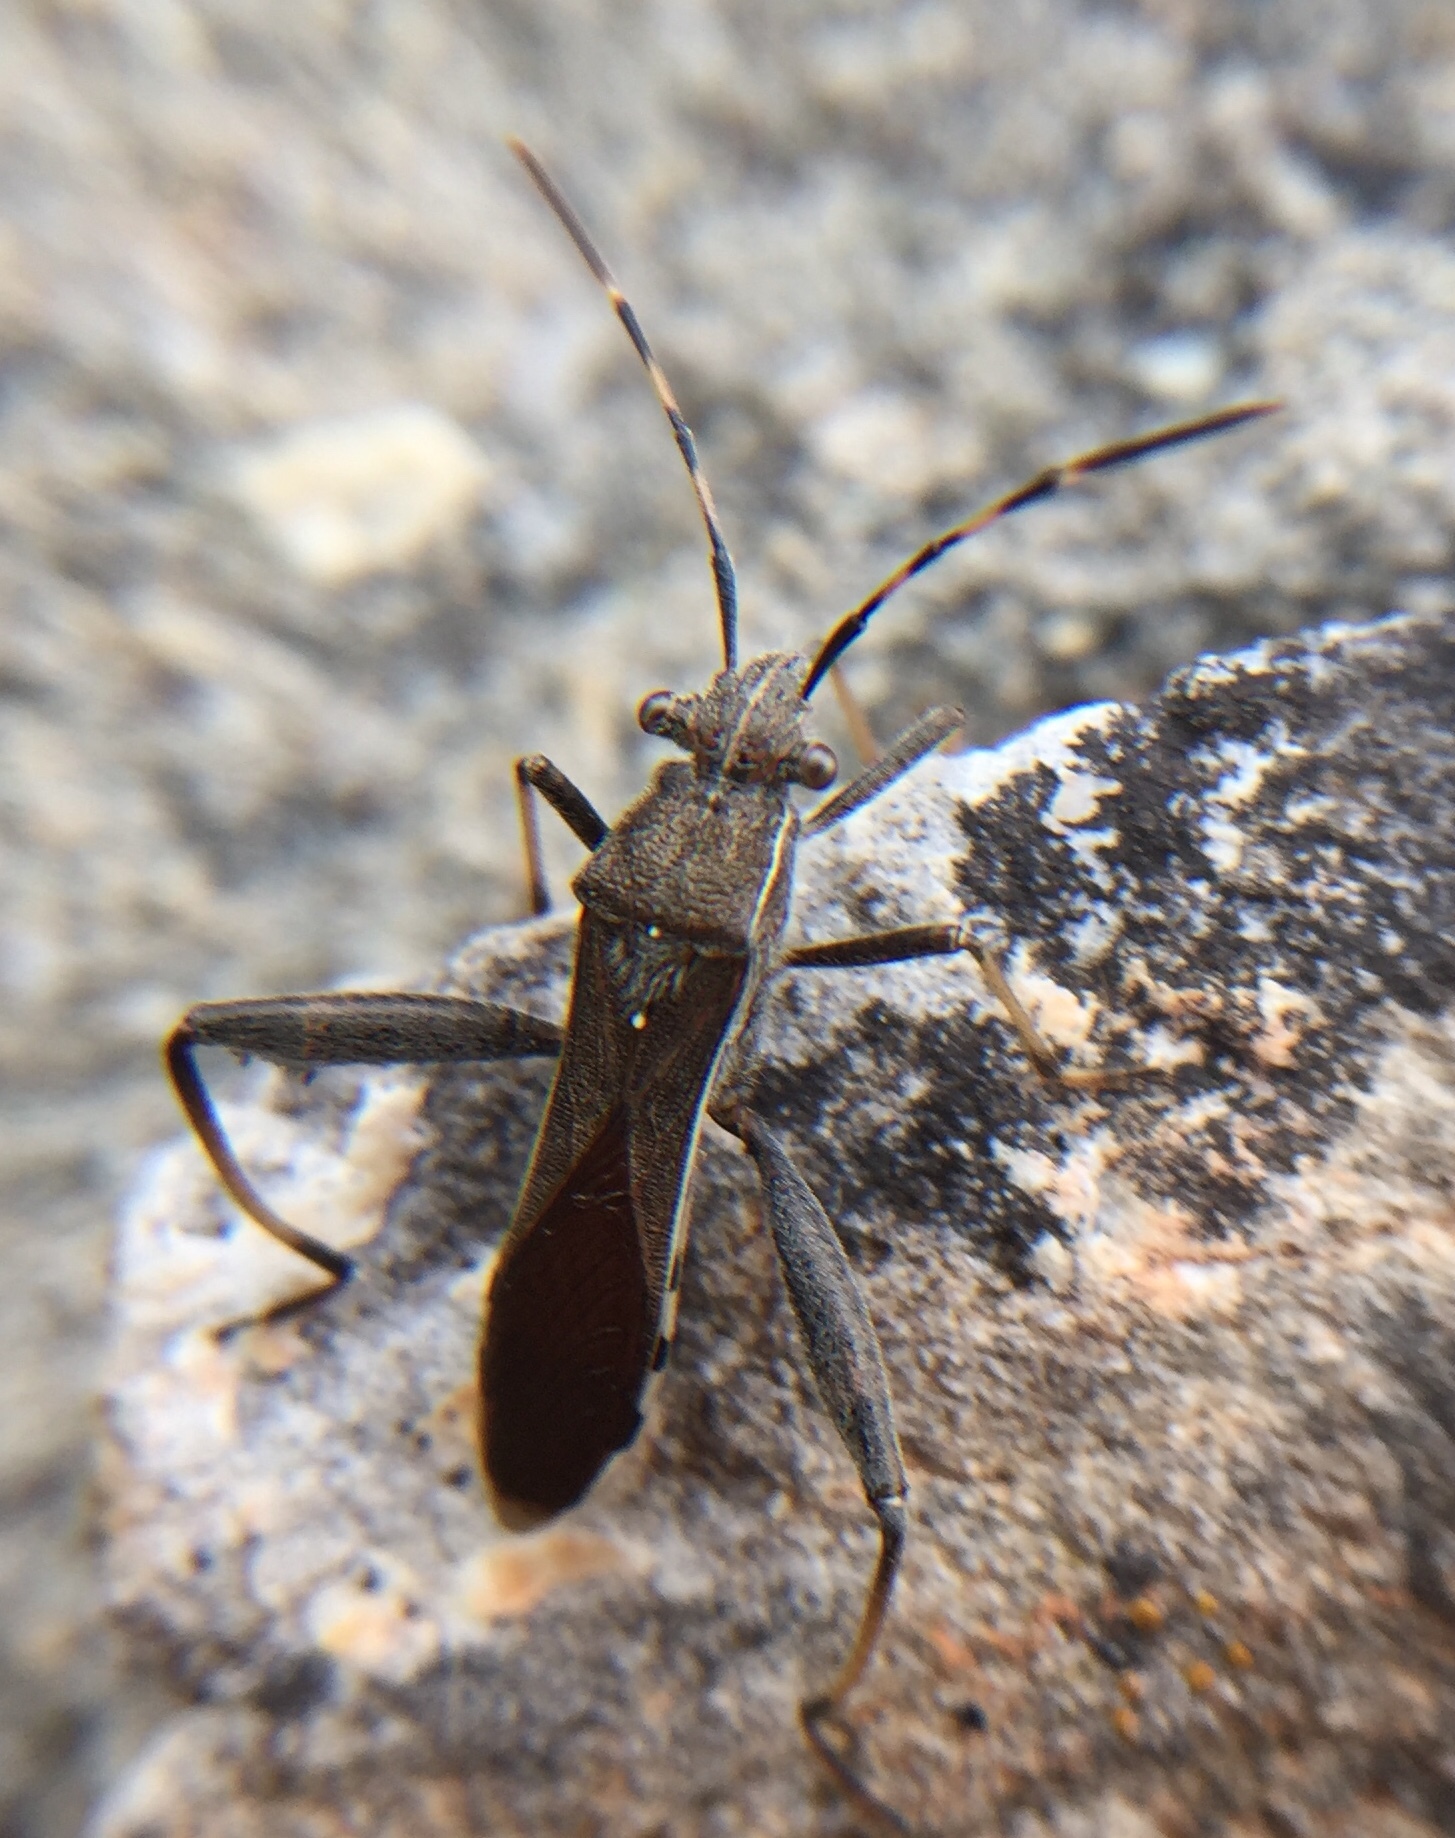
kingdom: Animalia
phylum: Arthropoda
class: Insecta
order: Hemiptera
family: Alydidae
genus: Camptopus
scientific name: Camptopus lateralis
